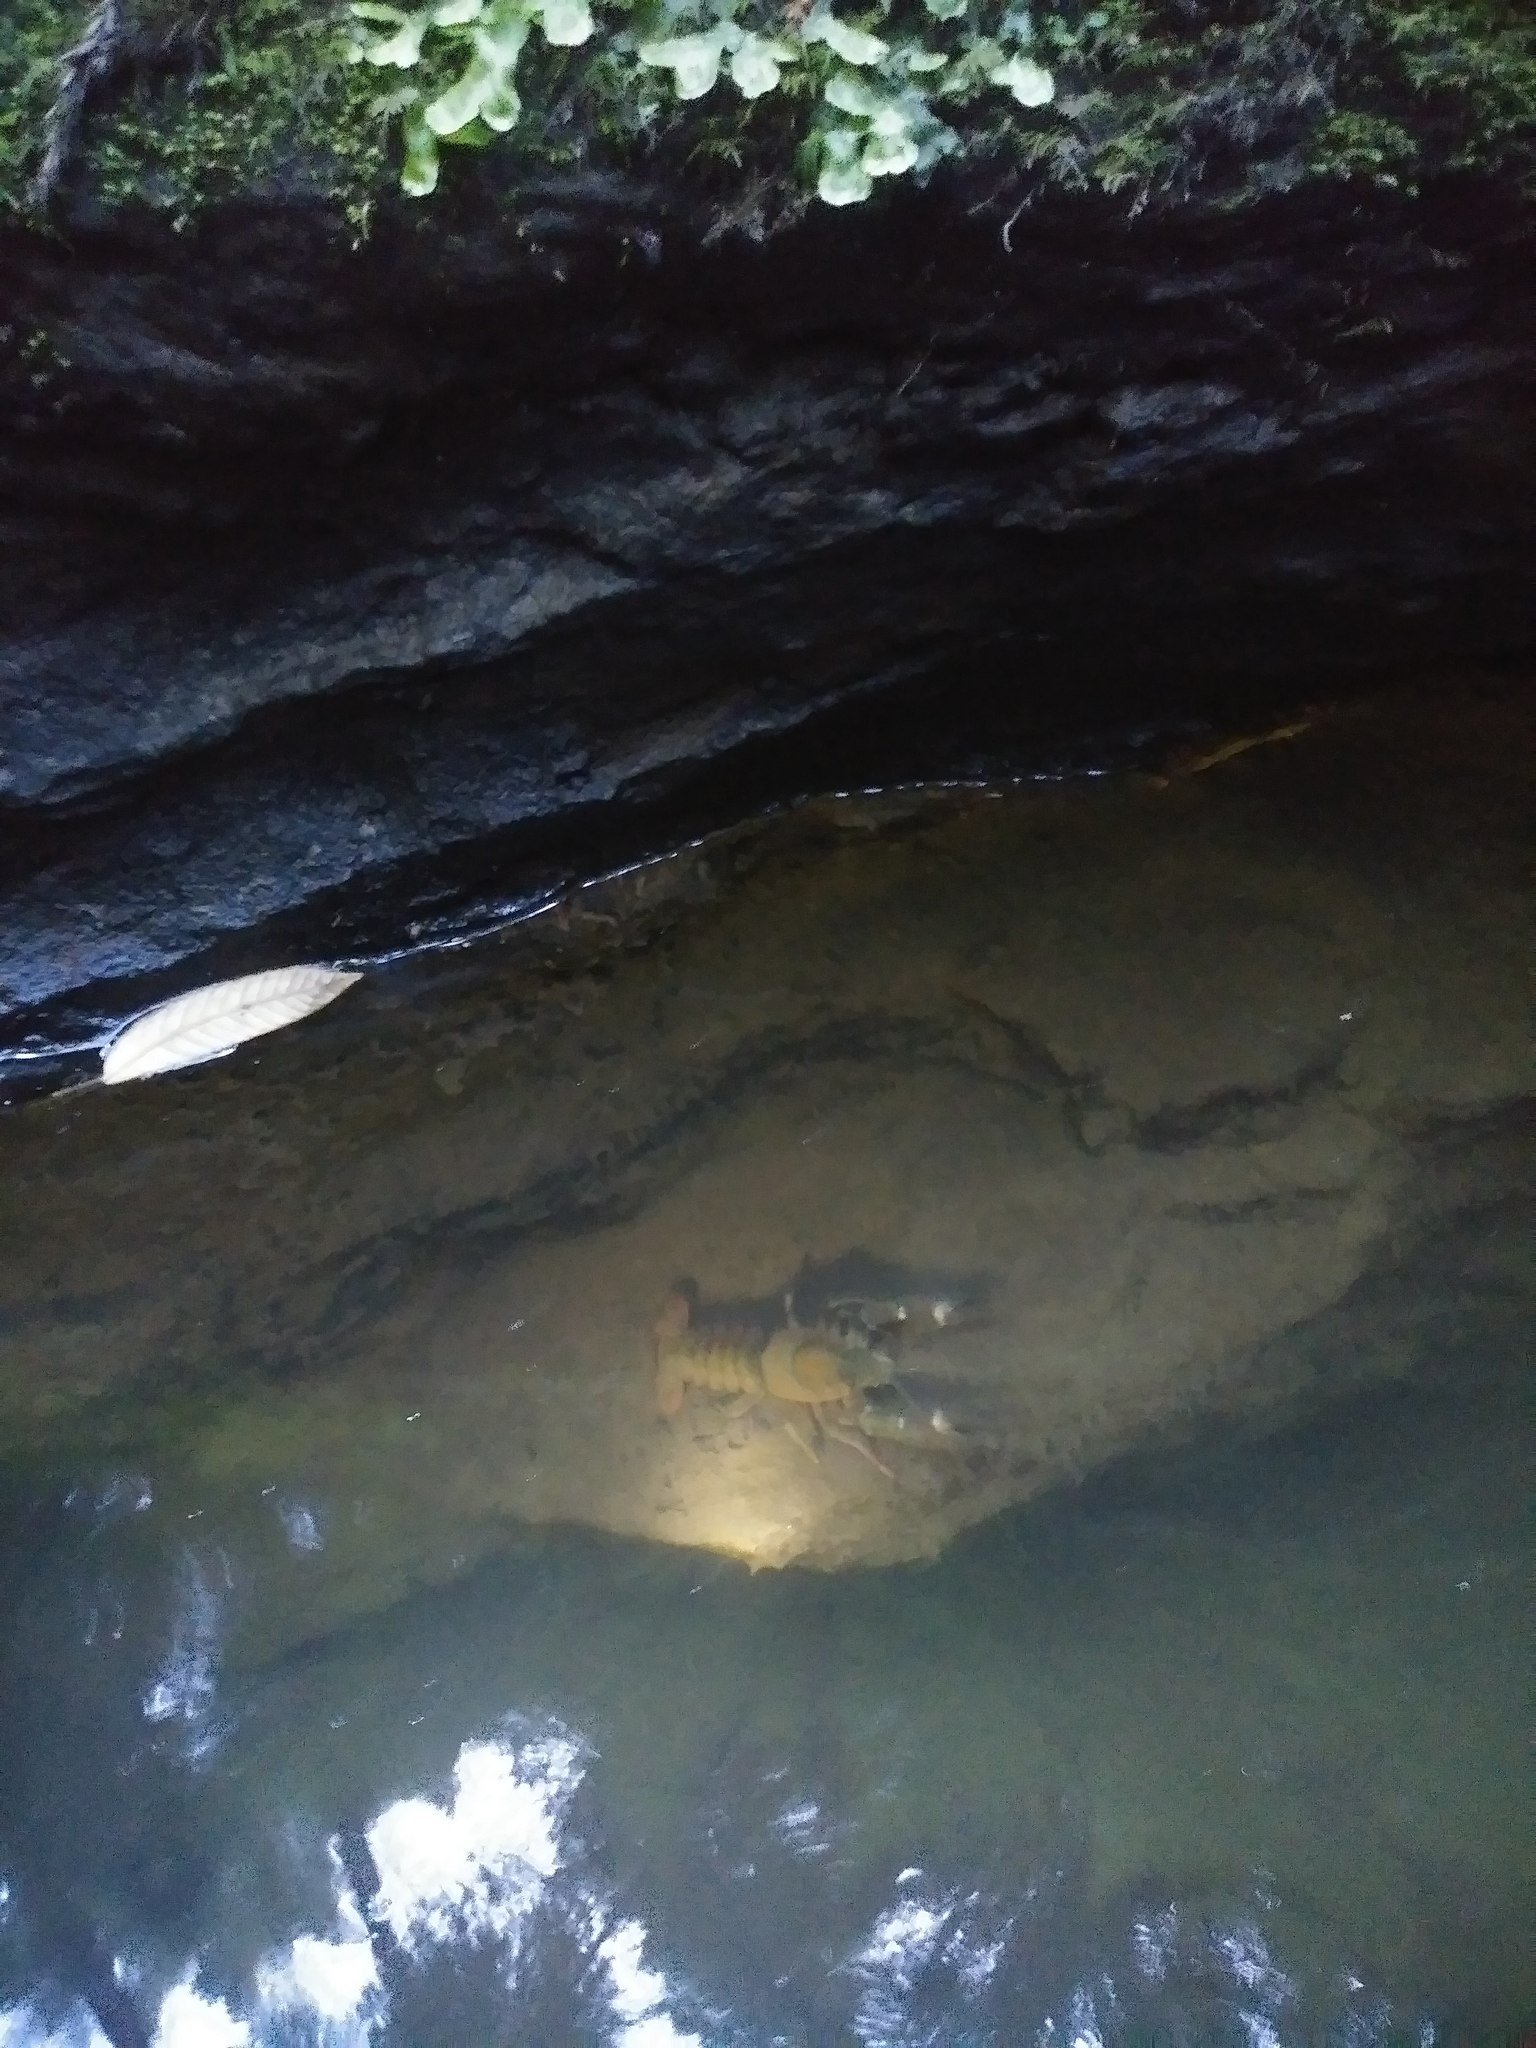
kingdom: Animalia
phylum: Arthropoda
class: Malacostraca
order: Decapoda
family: Astacidae
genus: Pacifastacus
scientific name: Pacifastacus leniusculus
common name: Signal crayfish
